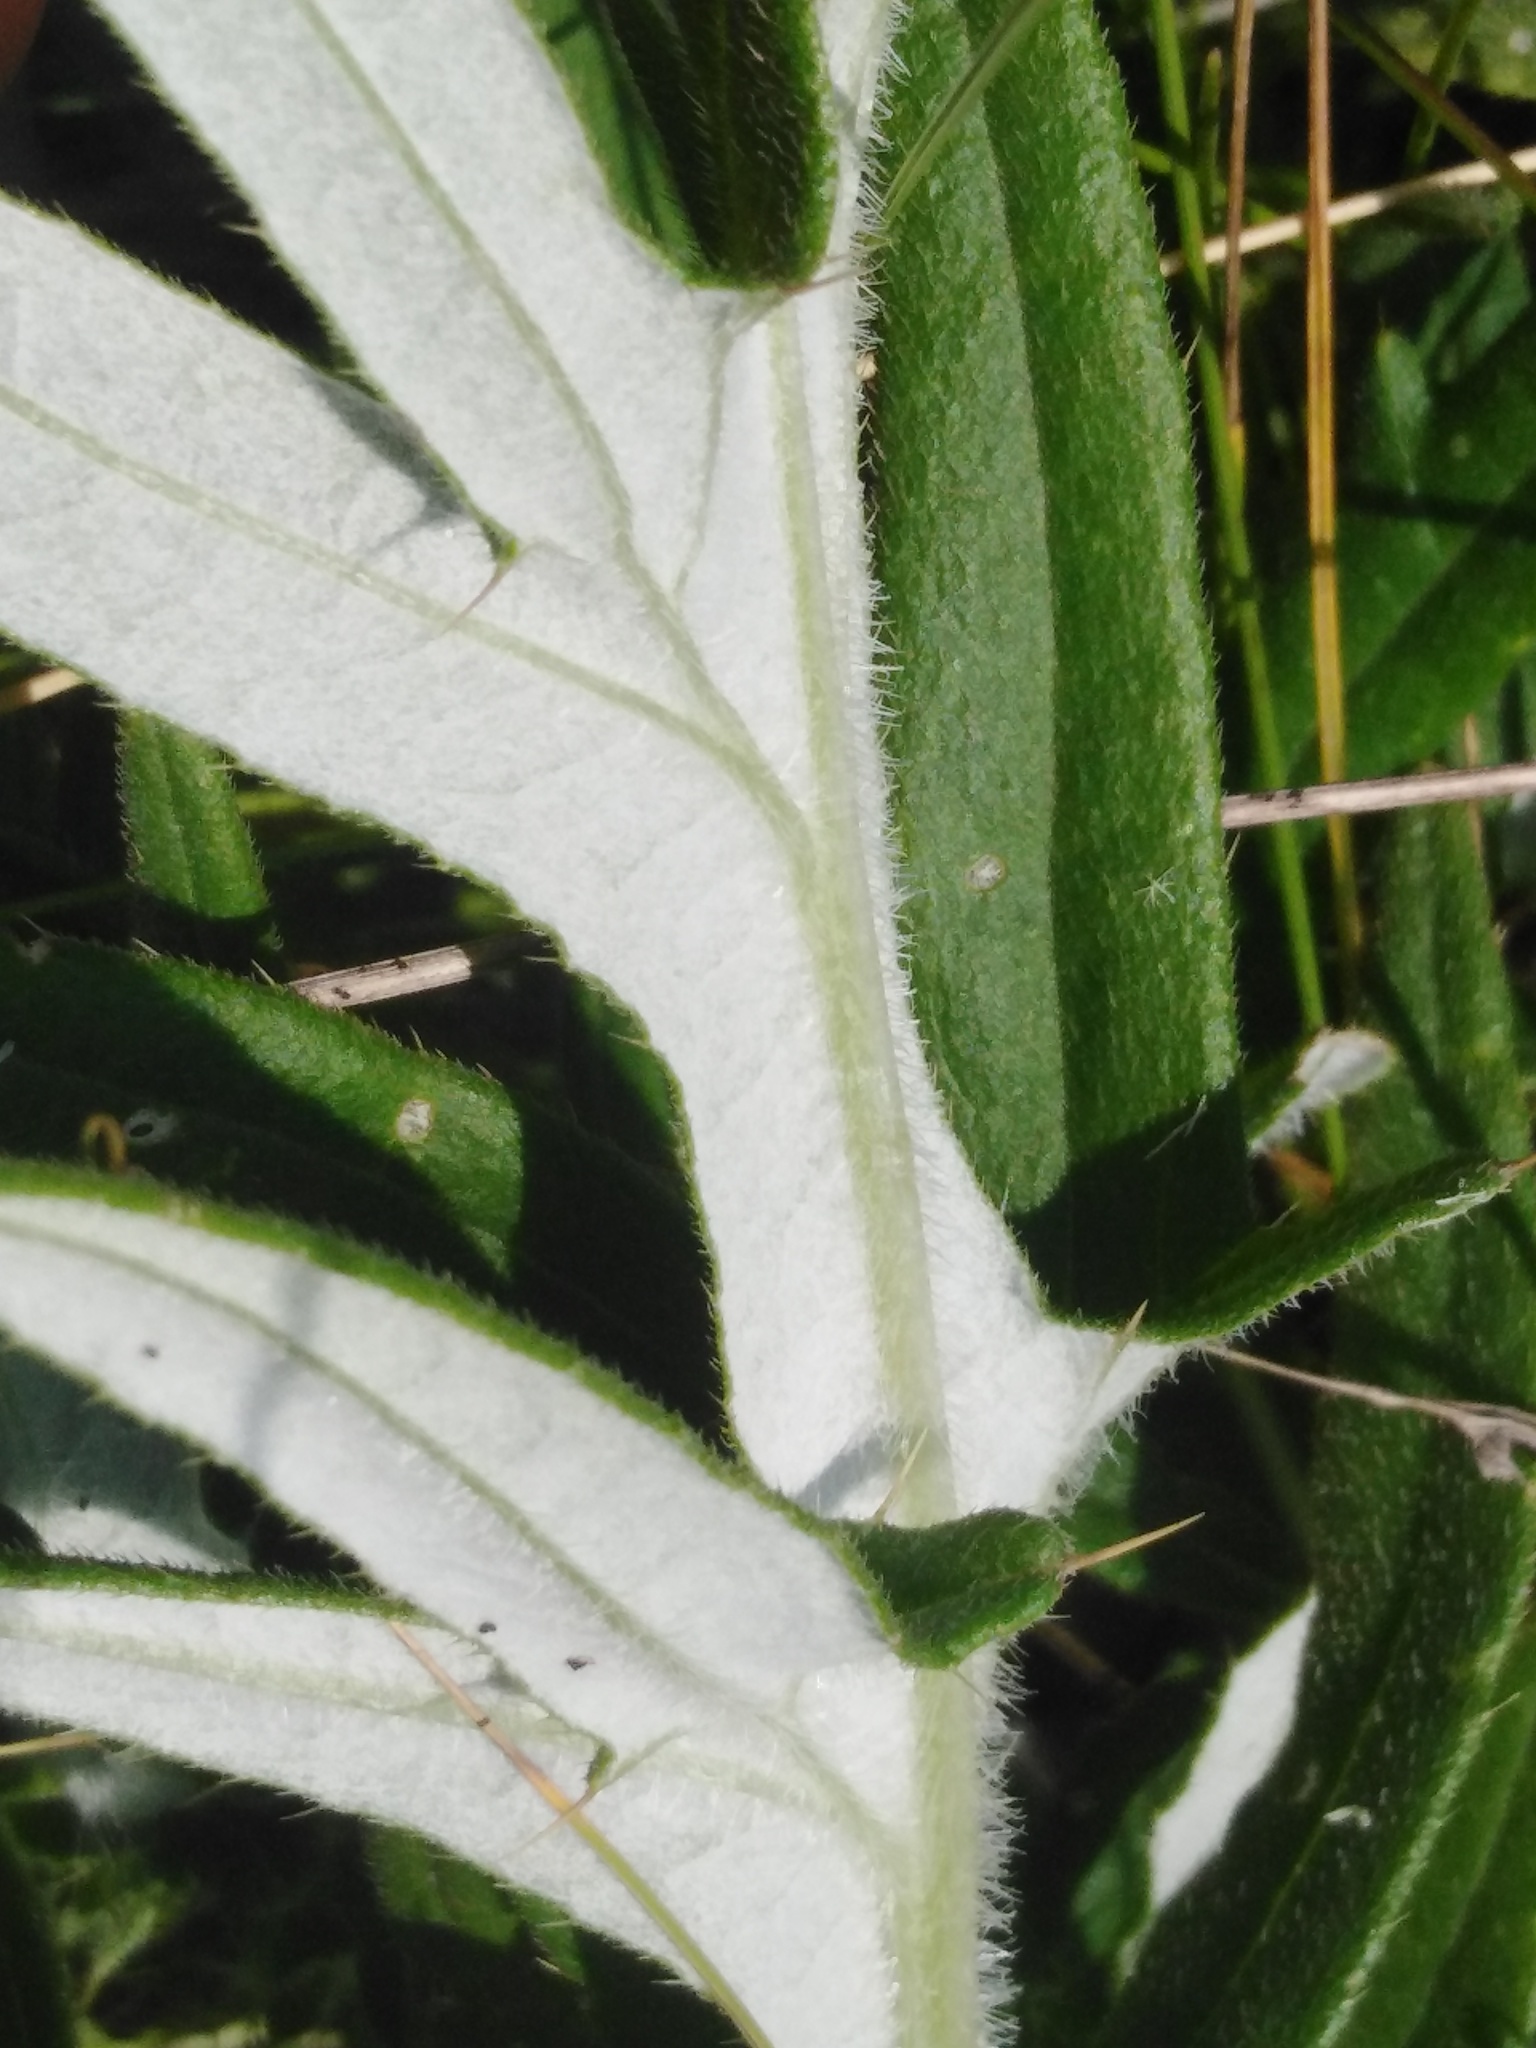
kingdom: Plantae
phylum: Tracheophyta
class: Magnoliopsida
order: Asterales
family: Asteraceae
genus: Lophiolepis
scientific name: Lophiolepis decussata
